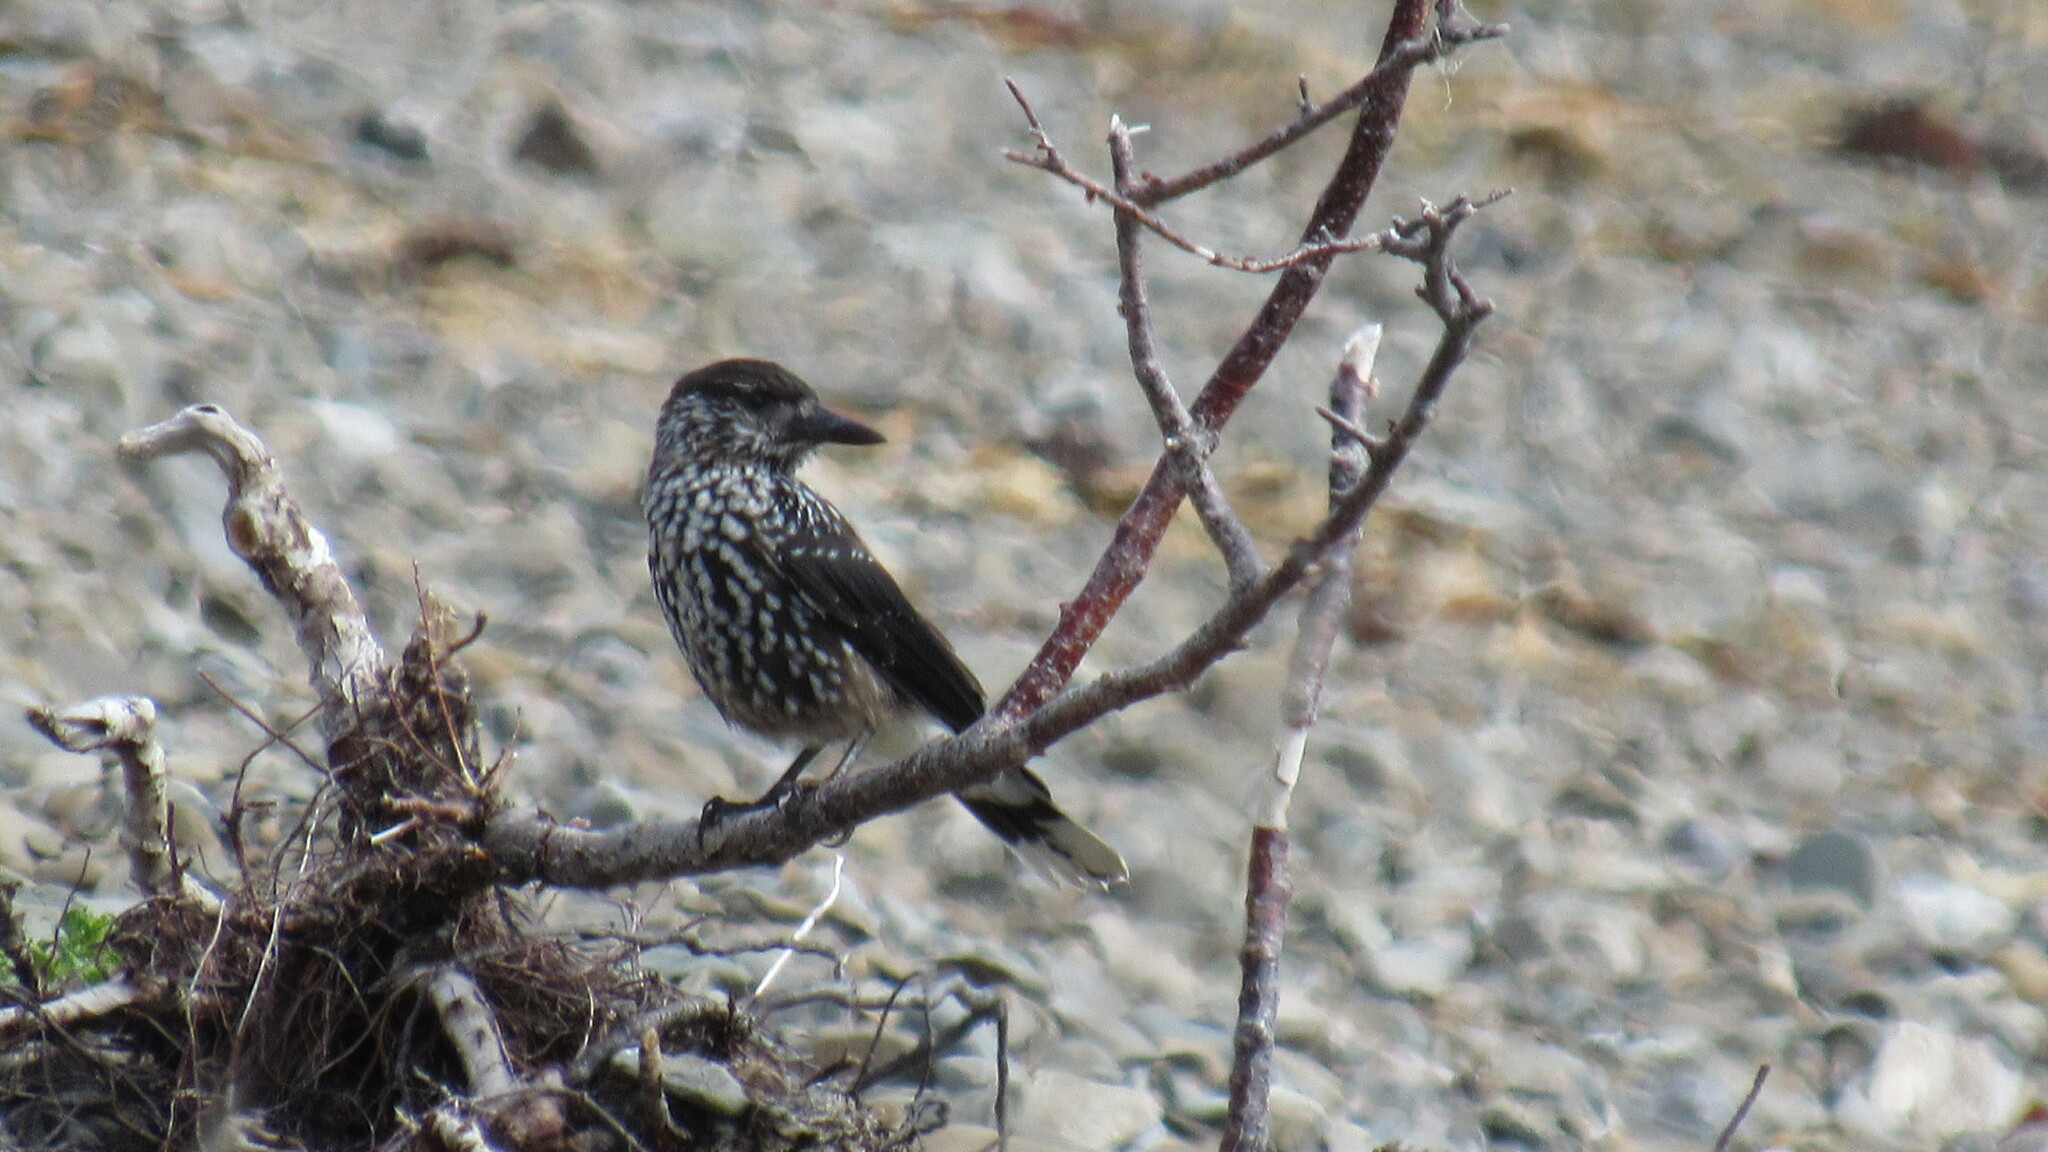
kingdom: Animalia
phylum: Chordata
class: Aves
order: Passeriformes
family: Corvidae
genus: Nucifraga
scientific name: Nucifraga caryocatactes
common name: Spotted nutcracker
